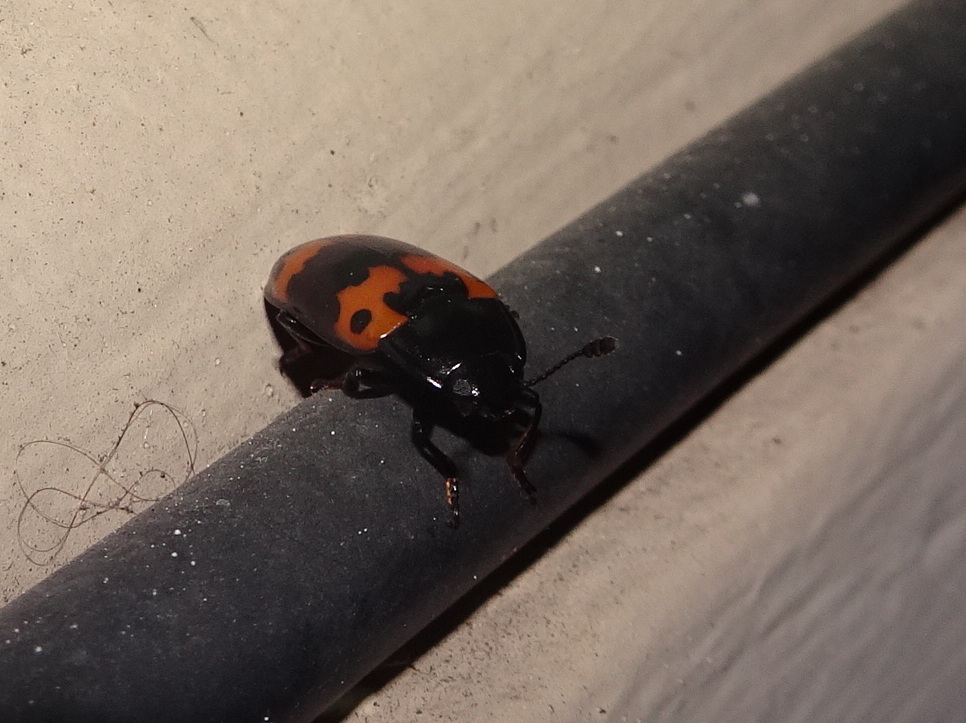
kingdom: Animalia
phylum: Arthropoda
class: Insecta
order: Coleoptera
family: Erotylidae
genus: Megalodacne
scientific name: Megalodacne fasciata
